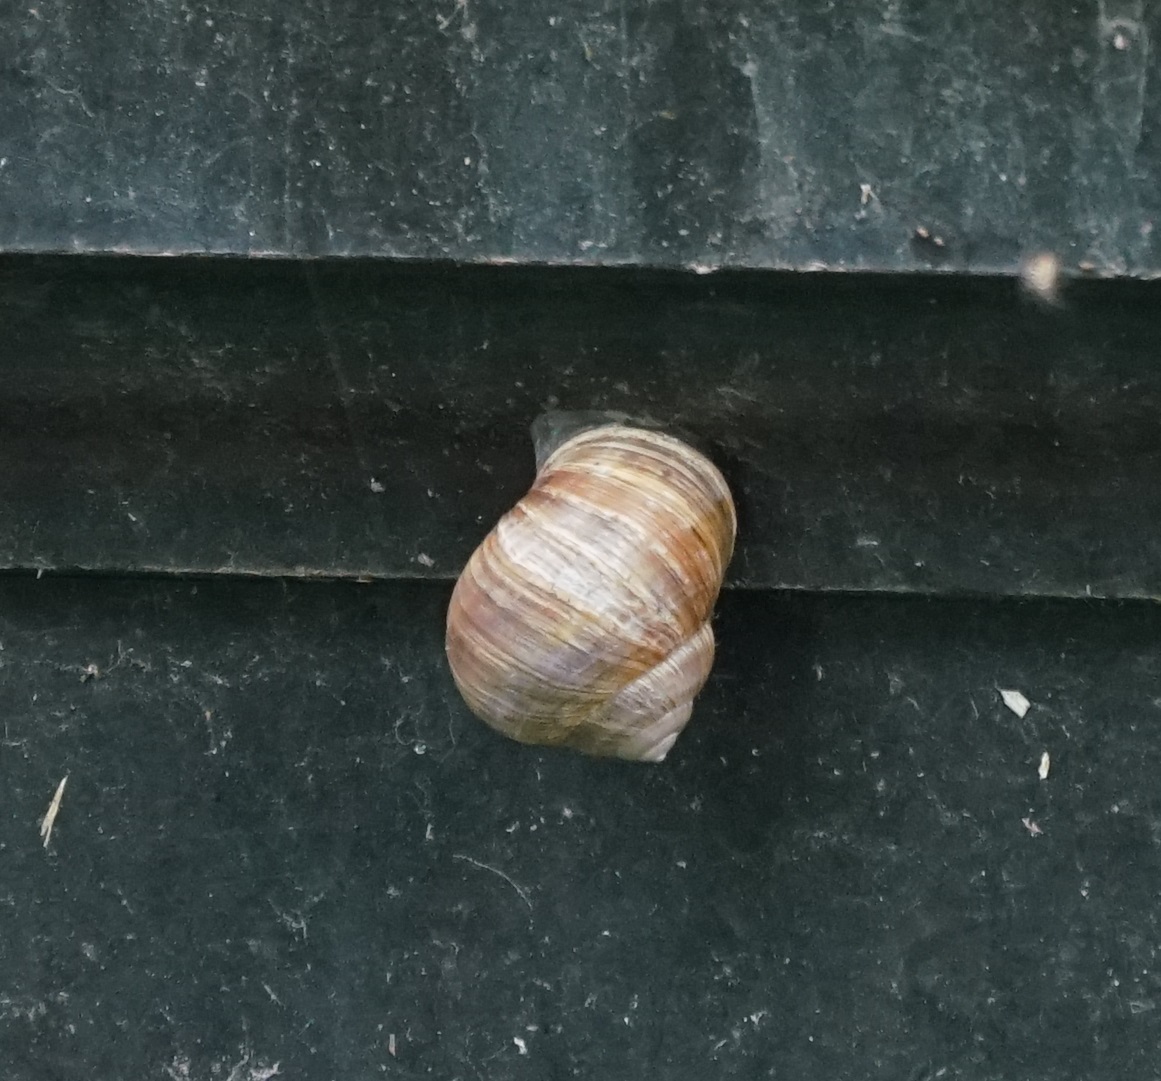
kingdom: Animalia
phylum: Mollusca
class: Gastropoda
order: Stylommatophora
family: Helicidae
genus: Helix
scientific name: Helix pomatia
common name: Roman snail
